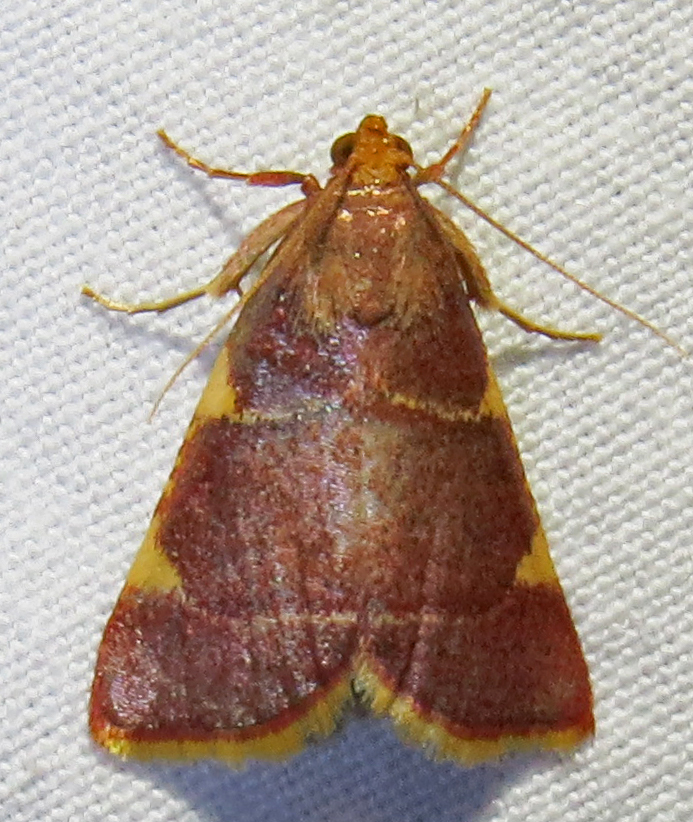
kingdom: Animalia
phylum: Arthropoda
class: Insecta
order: Lepidoptera
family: Pyralidae
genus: Hypsopygia
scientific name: Hypsopygia olinalis
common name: Yellow-fringed dolichomia moth
